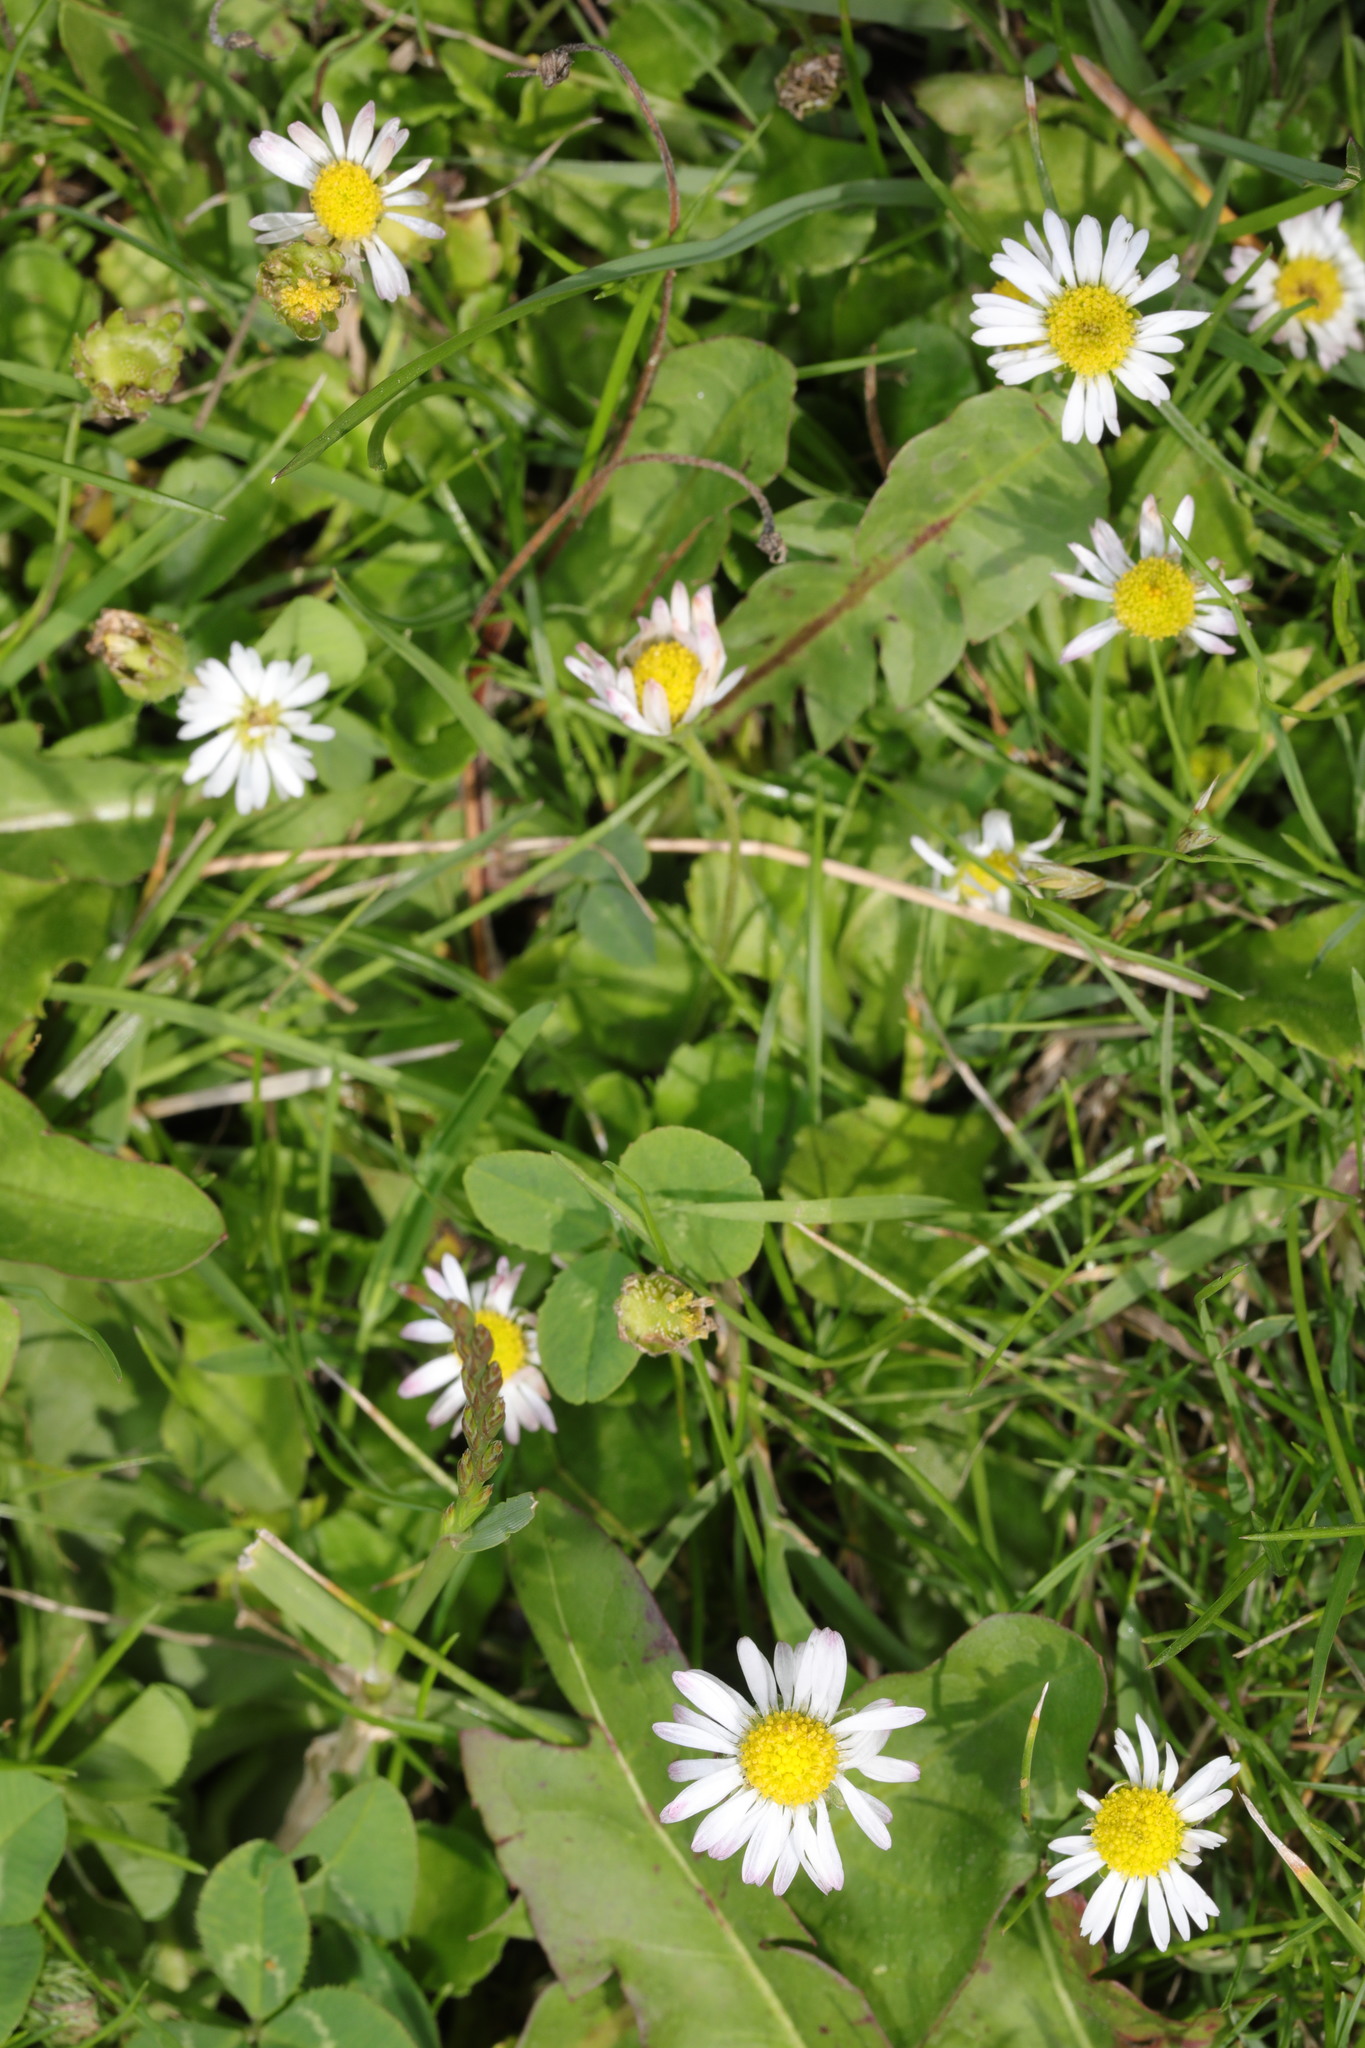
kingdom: Plantae
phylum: Tracheophyta
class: Magnoliopsida
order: Asterales
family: Asteraceae
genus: Bellis
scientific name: Bellis perennis
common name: Lawndaisy
